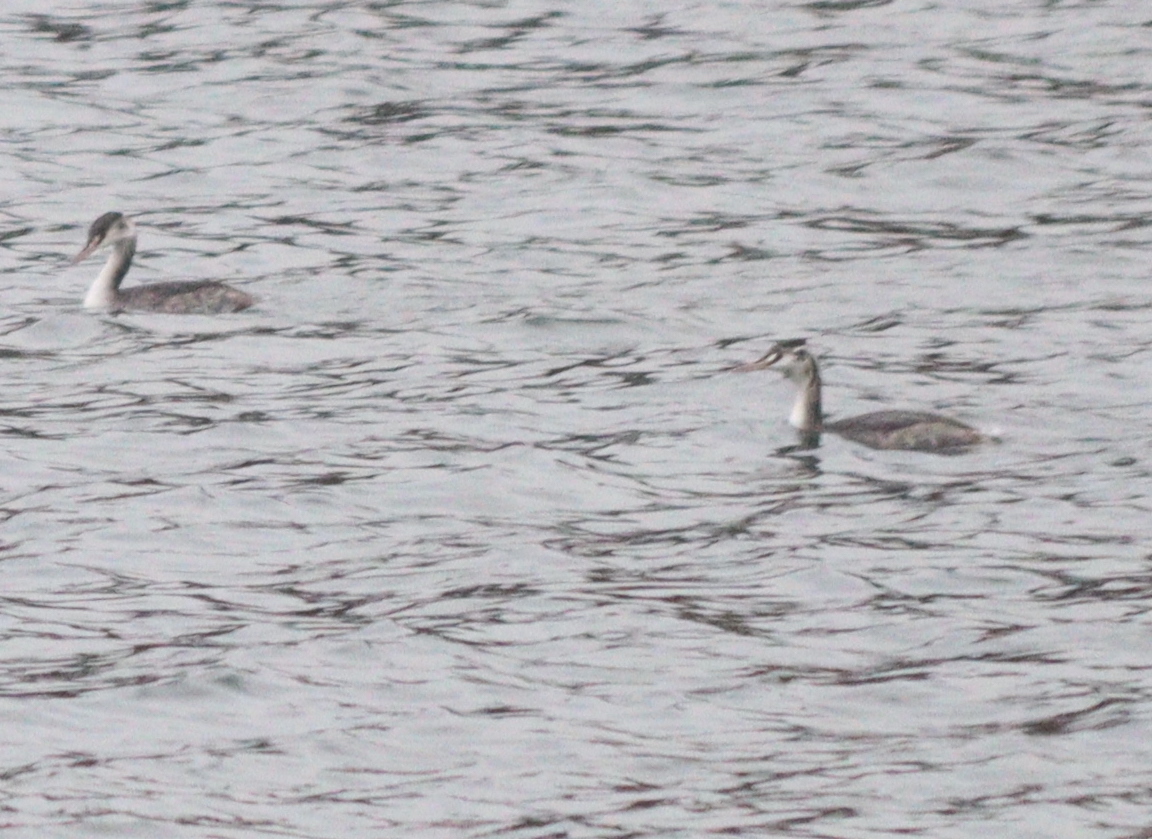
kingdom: Animalia
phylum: Chordata
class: Aves
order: Podicipediformes
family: Podicipedidae
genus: Podiceps
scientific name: Podiceps cristatus
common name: Great crested grebe
